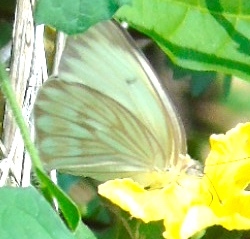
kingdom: Animalia
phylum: Arthropoda
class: Insecta
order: Lepidoptera
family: Pieridae
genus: Ascia
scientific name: Ascia monuste
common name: Great southern white
